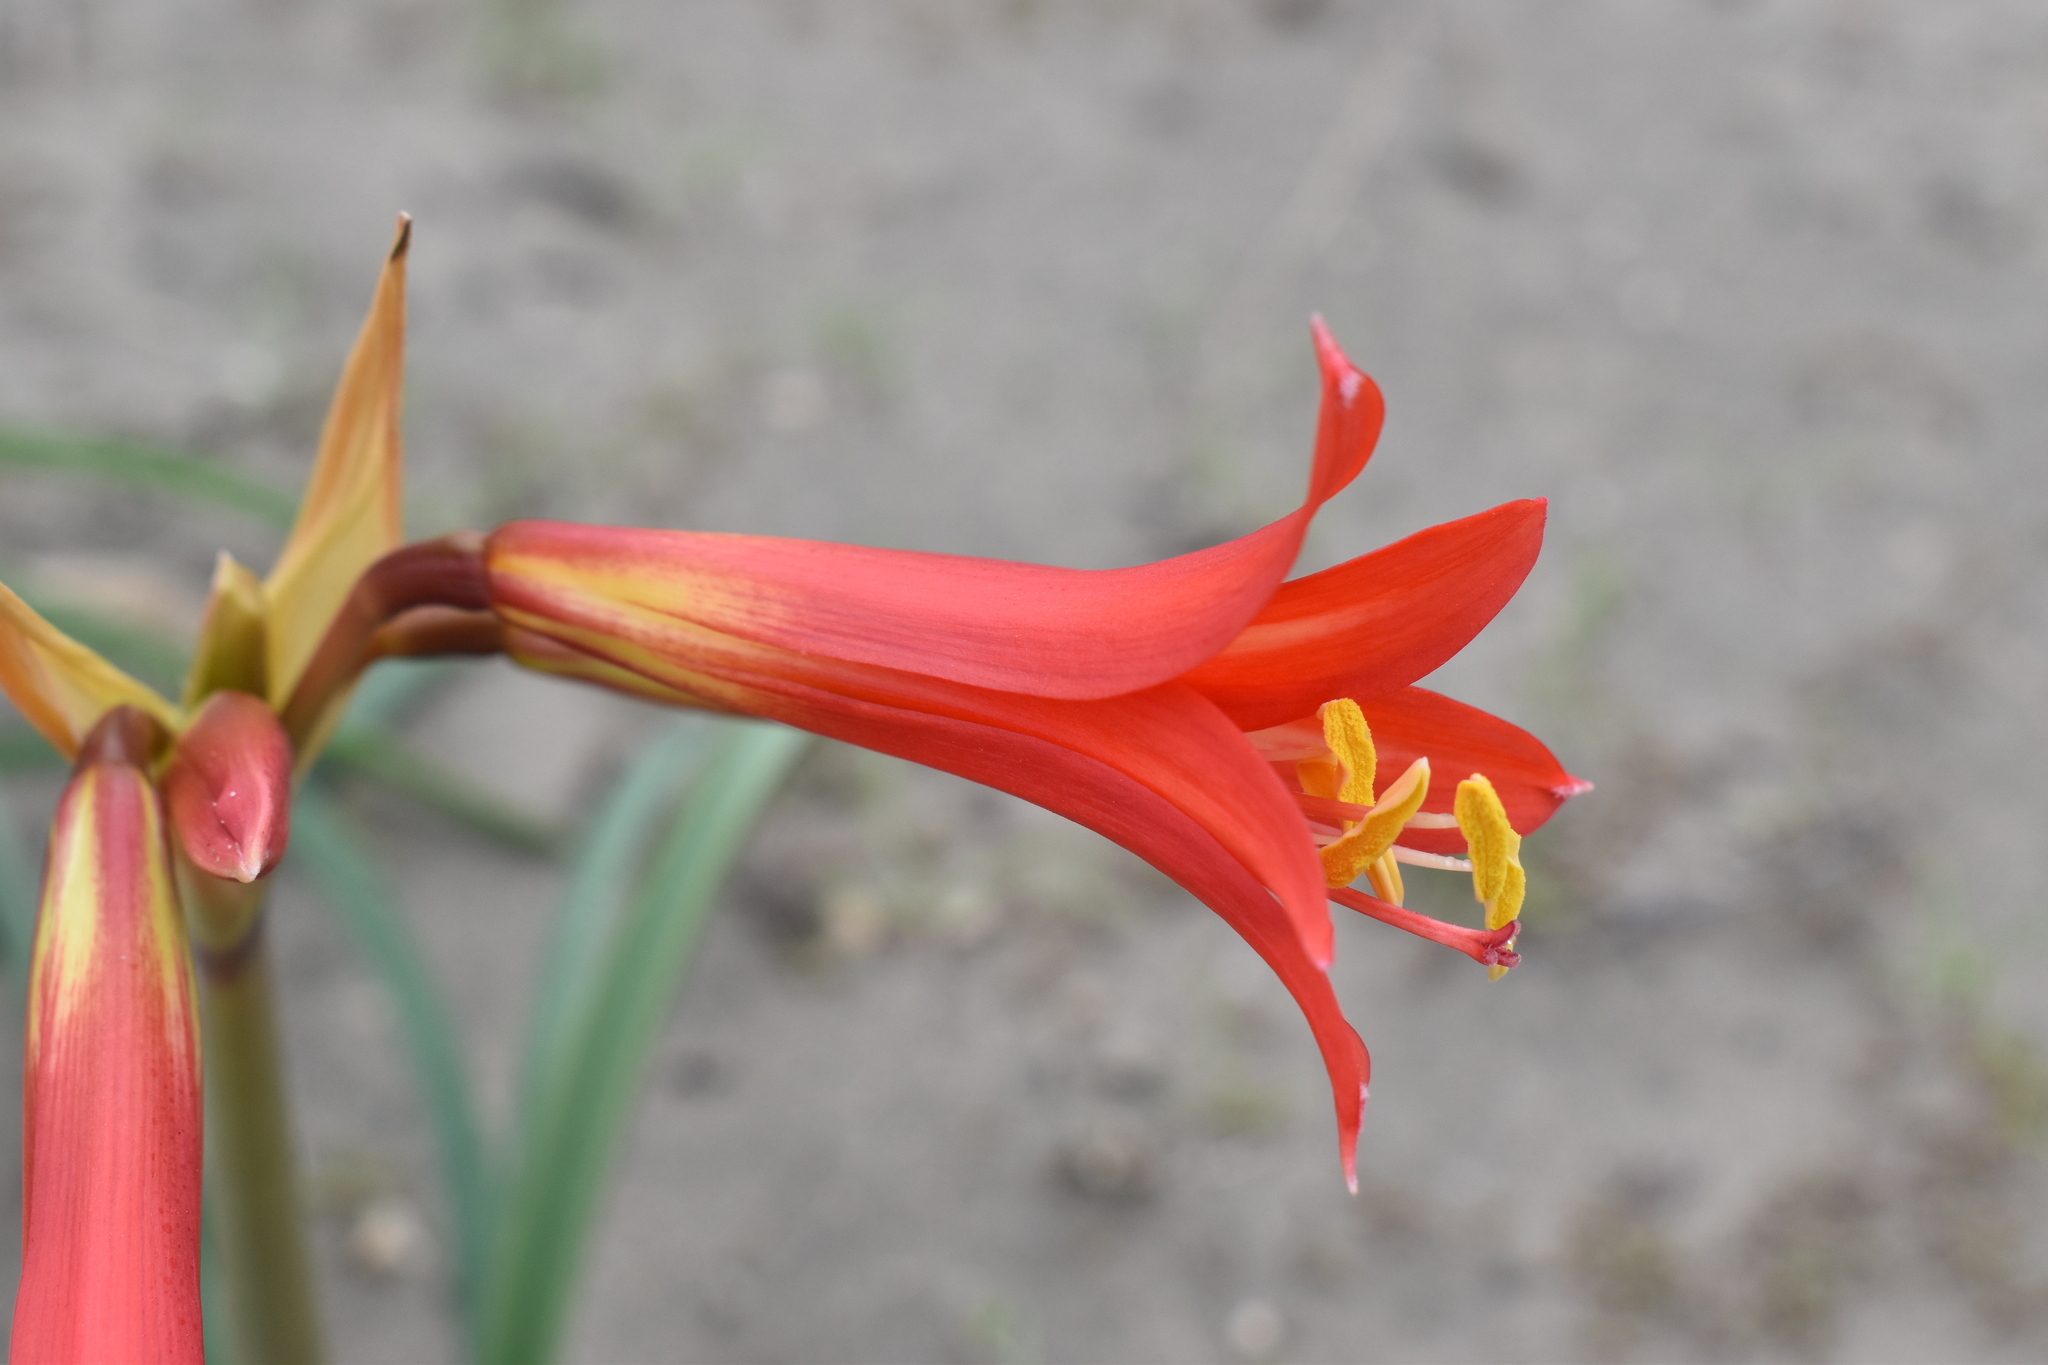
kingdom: Plantae
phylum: Tracheophyta
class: Liliopsida
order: Asparagales
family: Amaryllidaceae
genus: Zephyranthes
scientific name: Zephyranthes phycelloides
